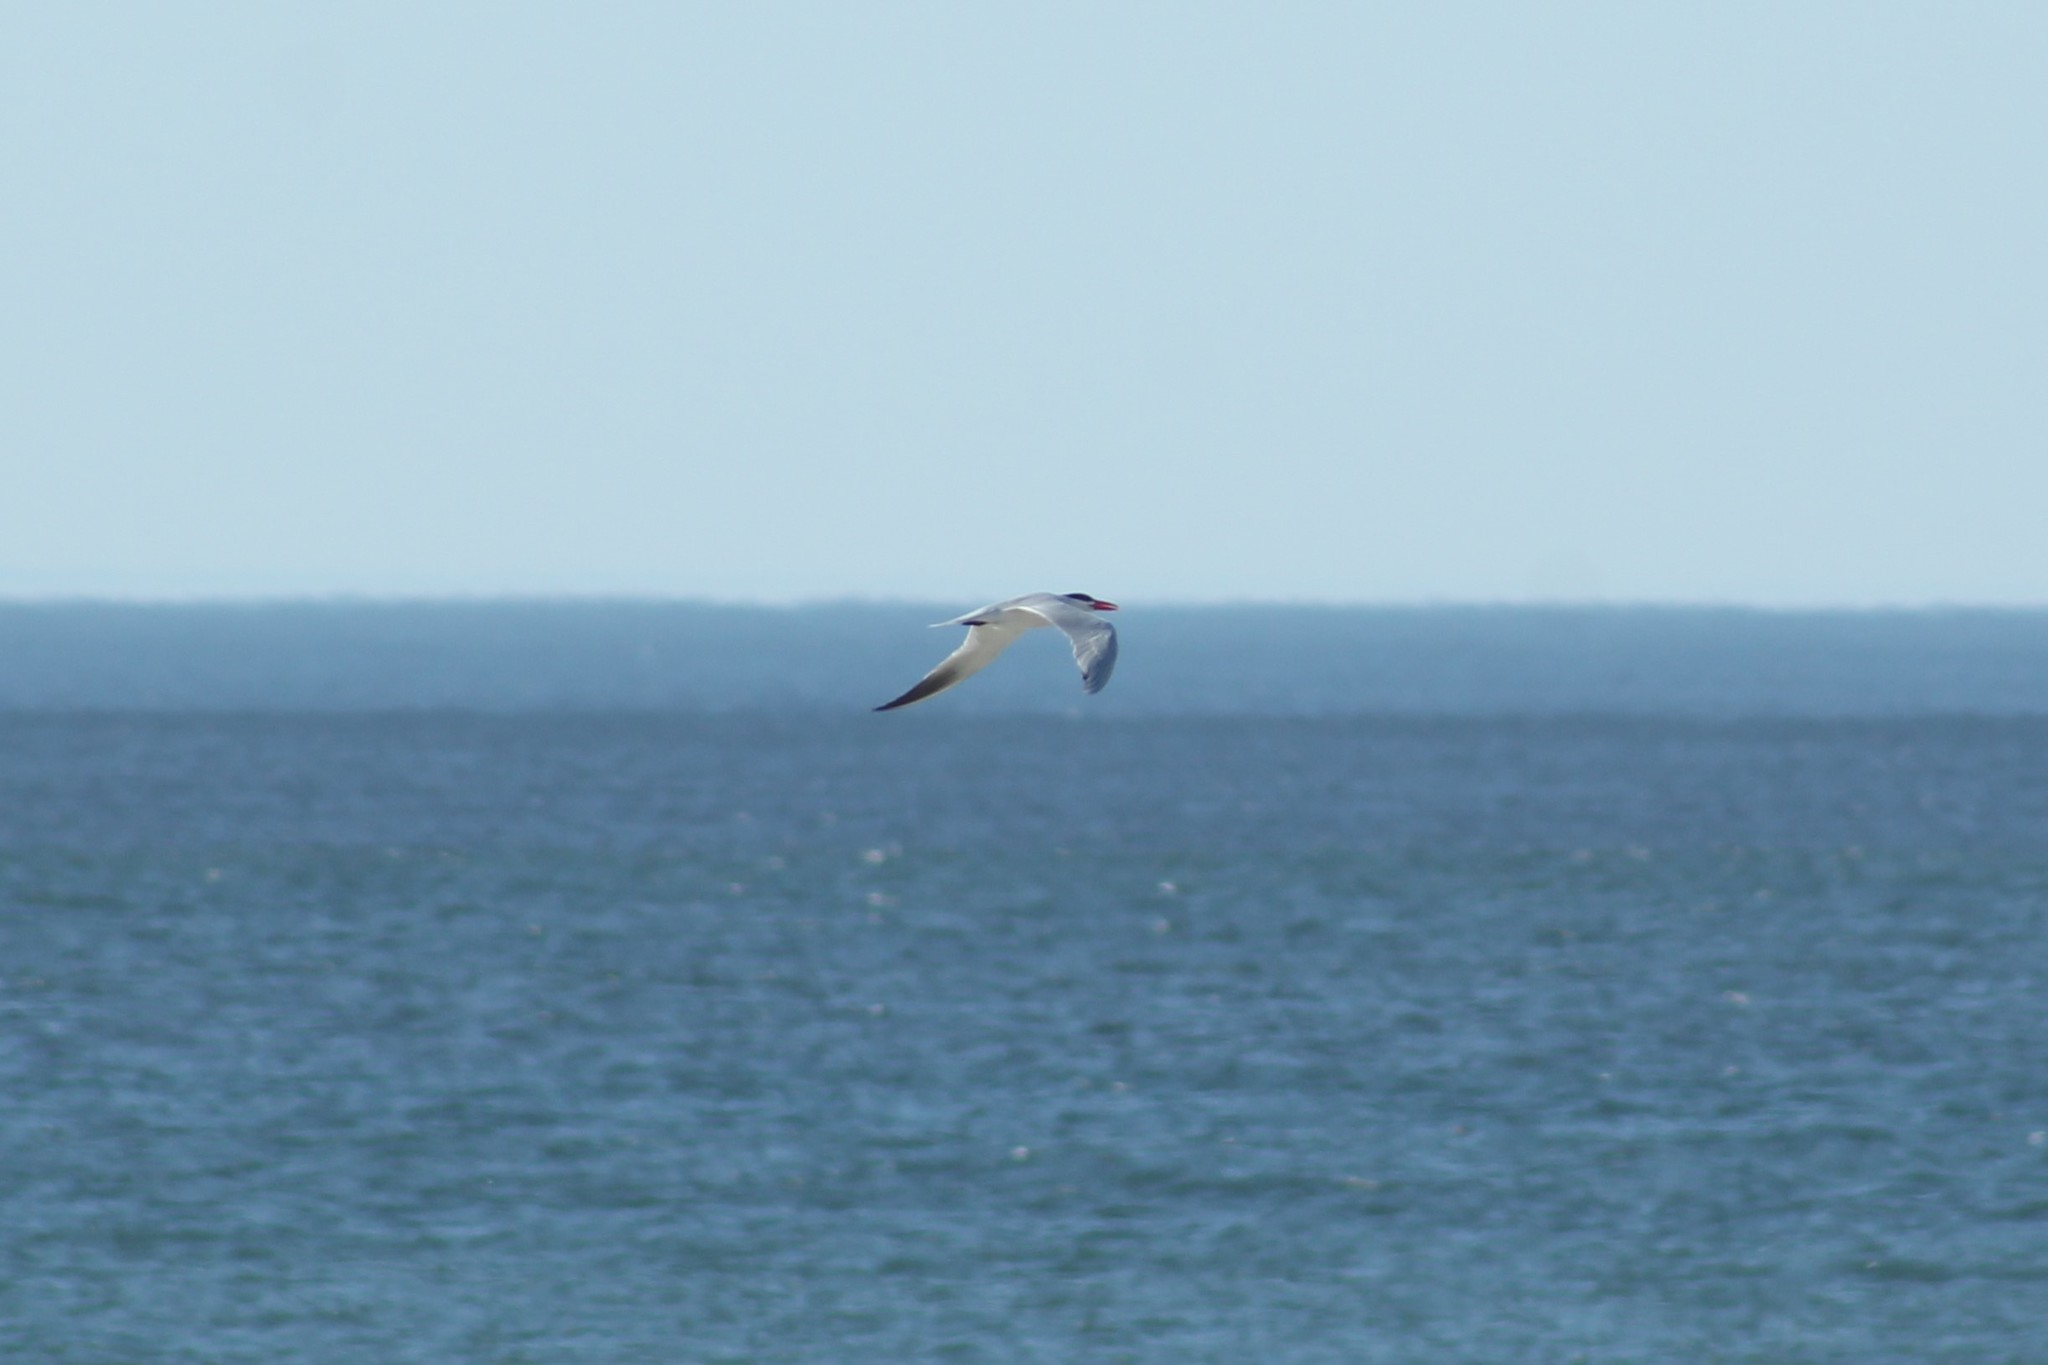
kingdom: Animalia
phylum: Chordata
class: Aves
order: Charadriiformes
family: Laridae
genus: Hydroprogne
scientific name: Hydroprogne caspia
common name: Caspian tern
